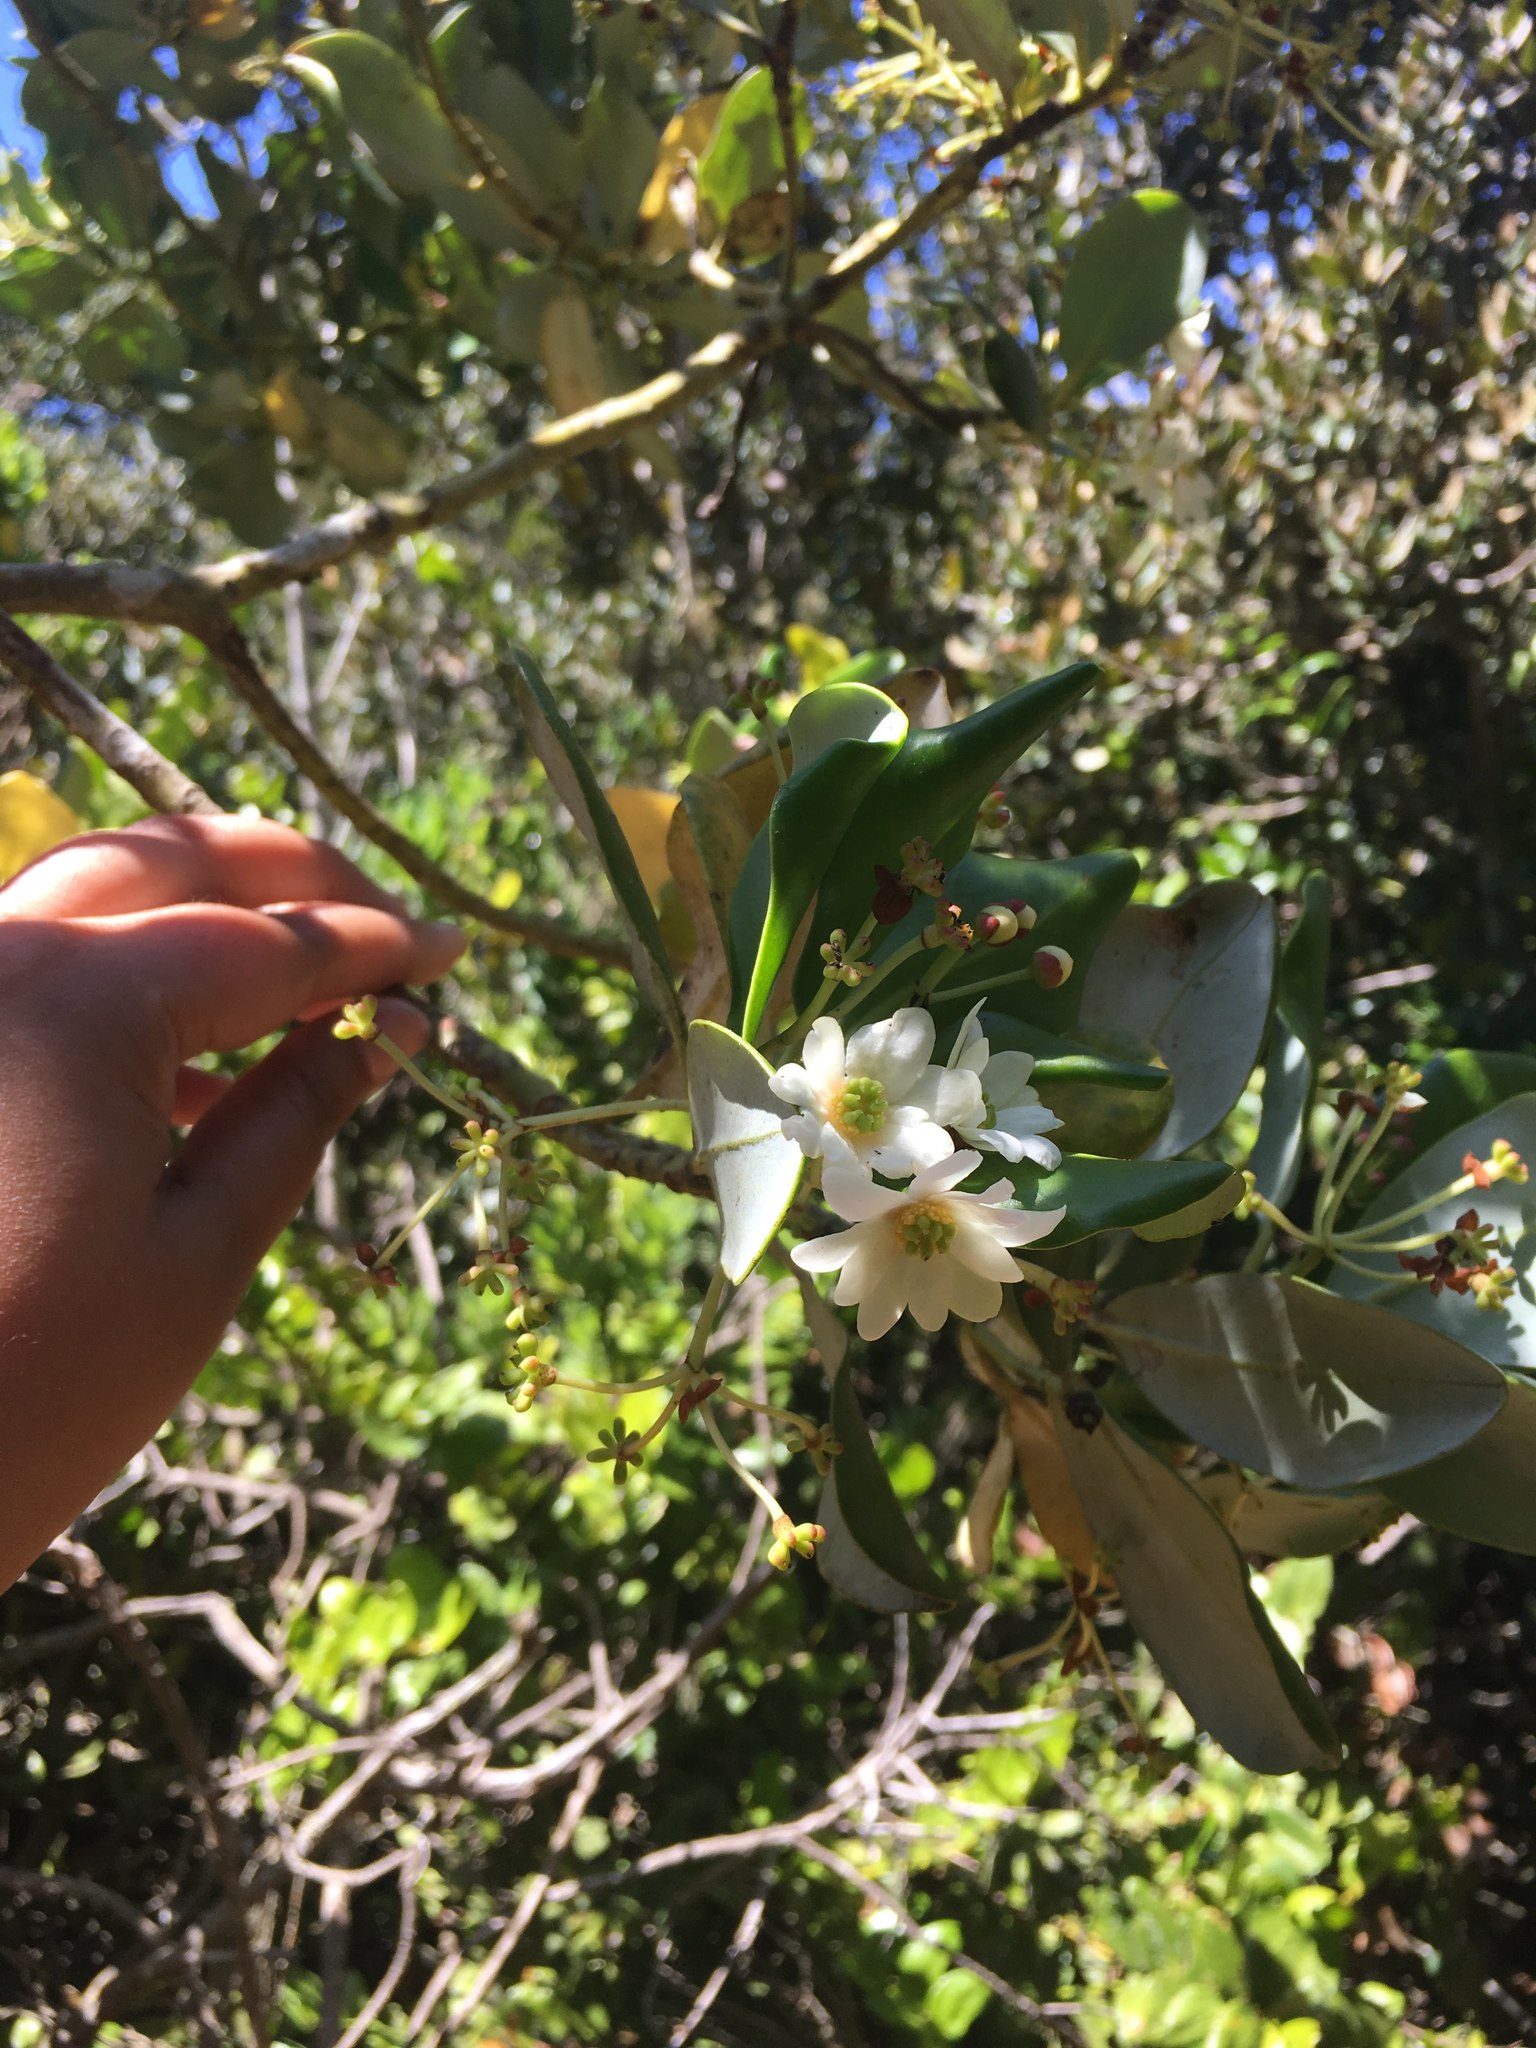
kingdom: Plantae
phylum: Tracheophyta
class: Magnoliopsida
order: Canellales
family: Winteraceae
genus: Drimys
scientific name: Drimys winteri
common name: Winter's-bark
